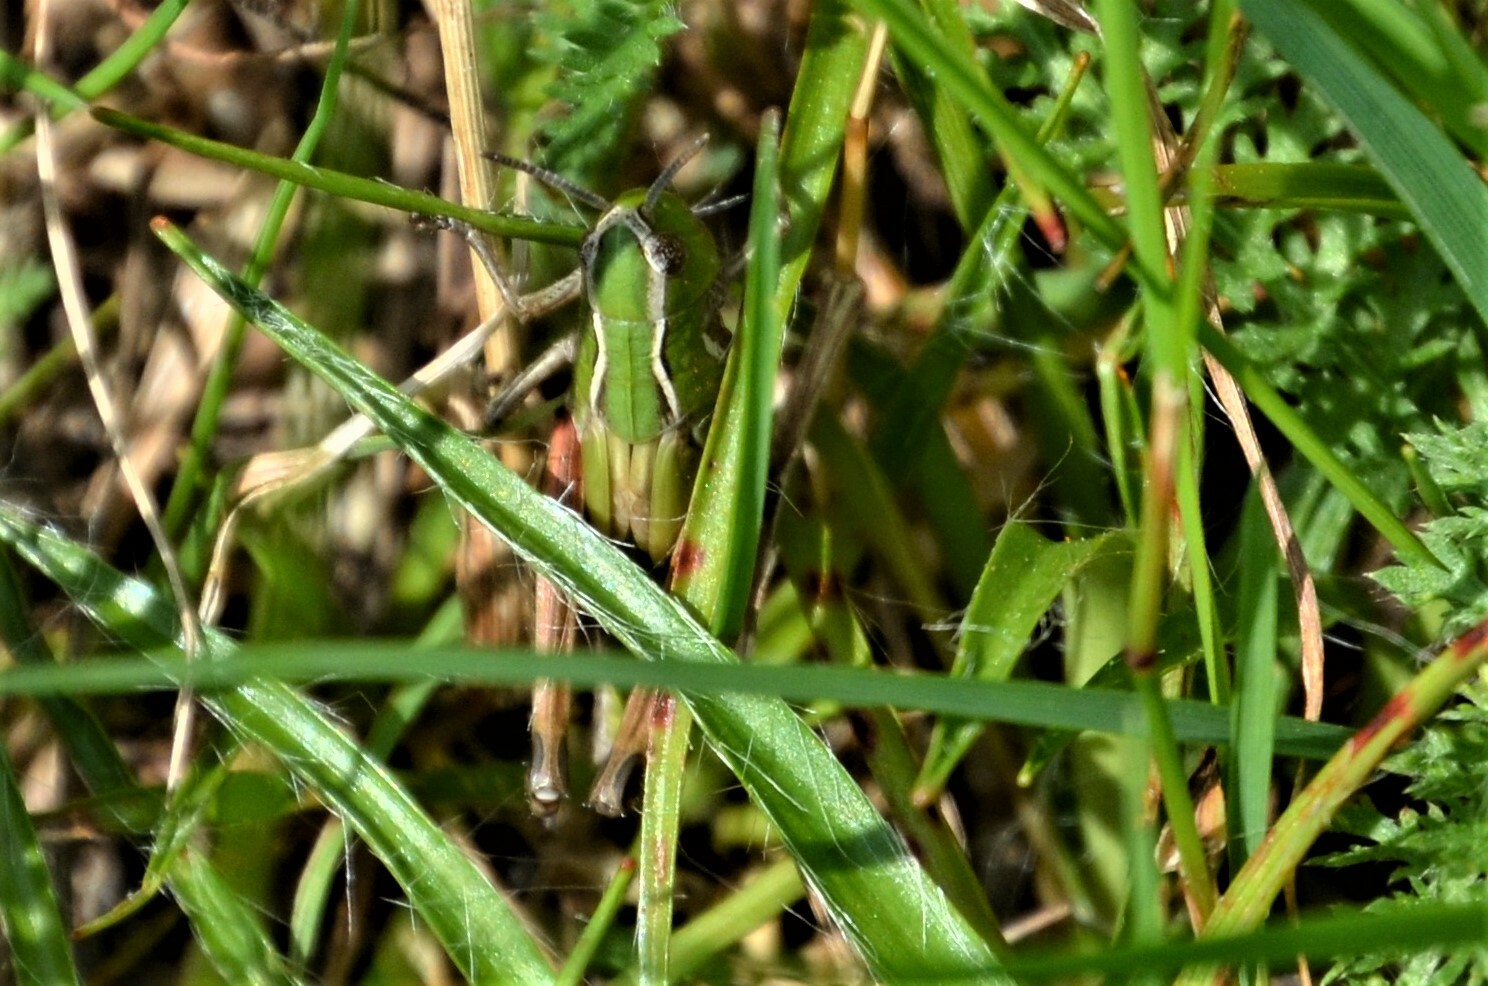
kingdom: Animalia
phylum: Arthropoda
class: Insecta
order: Orthoptera
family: Acrididae
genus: Stenobothrus
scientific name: Stenobothrus lineatus
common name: Stripe-winged grasshopper
